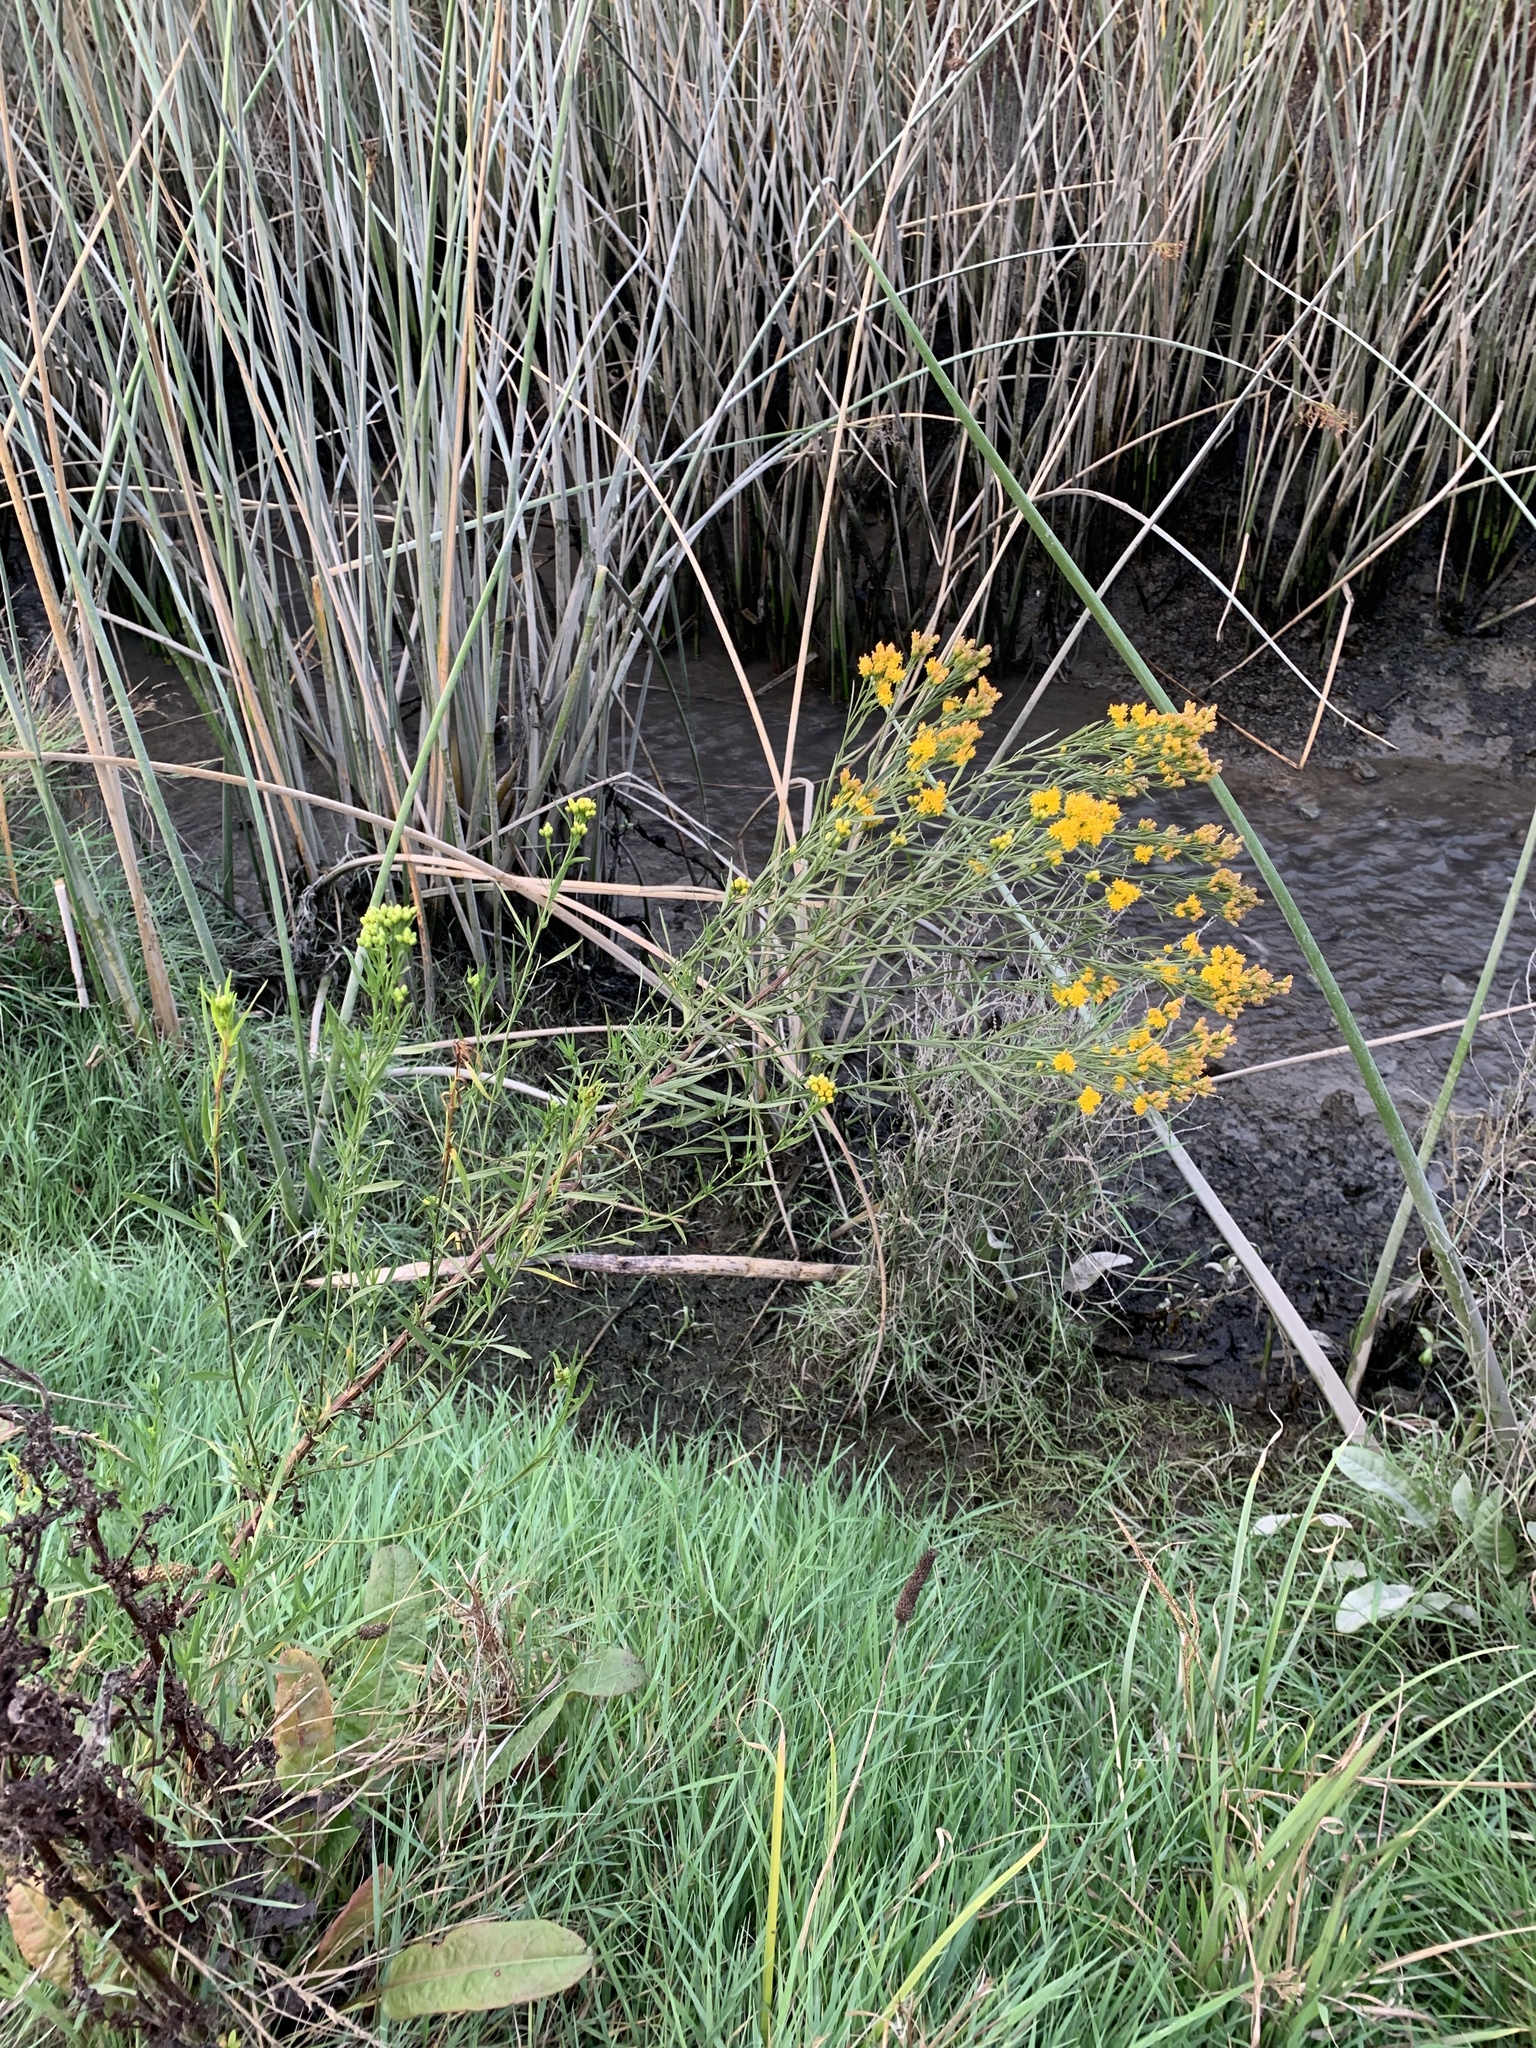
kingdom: Plantae
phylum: Tracheophyta
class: Magnoliopsida
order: Asterales
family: Asteraceae
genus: Euthamia
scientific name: Euthamia occidentalis
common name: Western goldentop
